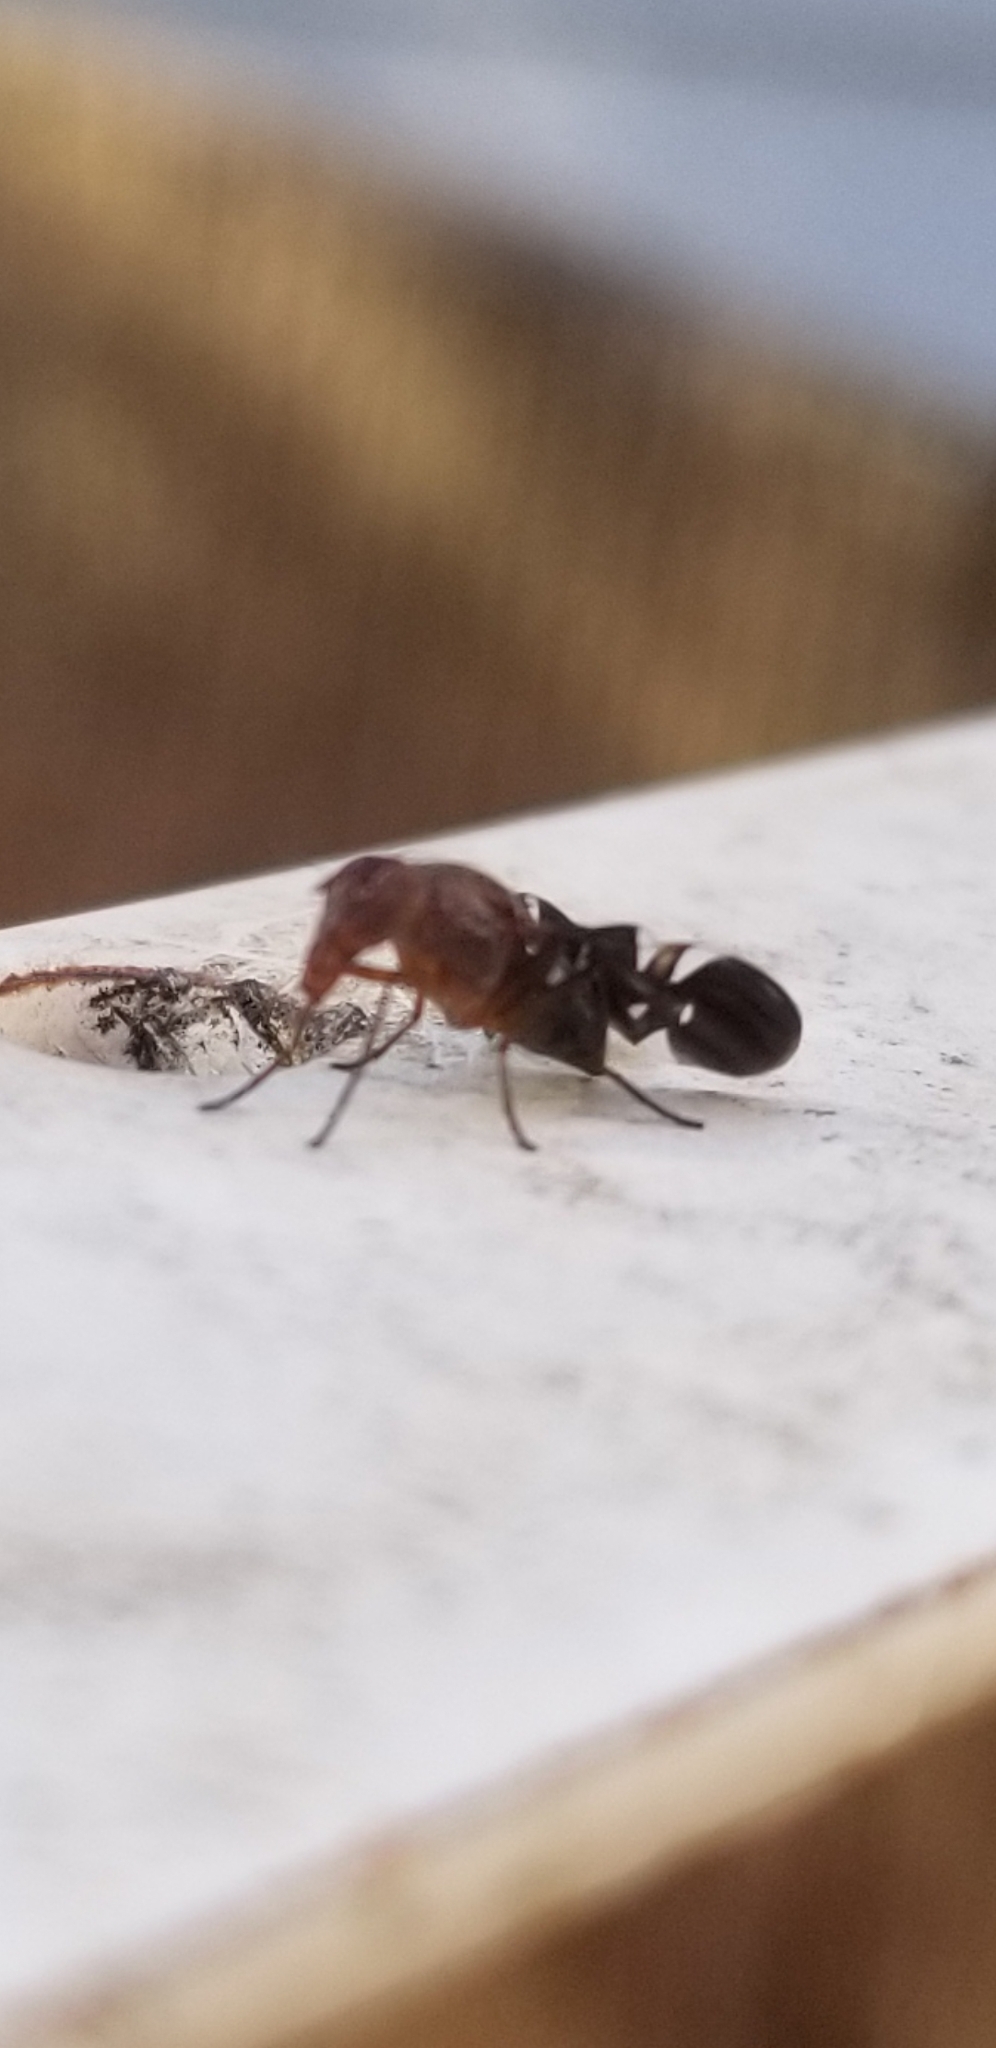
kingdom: Animalia
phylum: Arthropoda
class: Insecta
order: Diptera
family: Ulidiidae
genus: Delphinia
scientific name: Delphinia picta
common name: Common picture-winged fly
